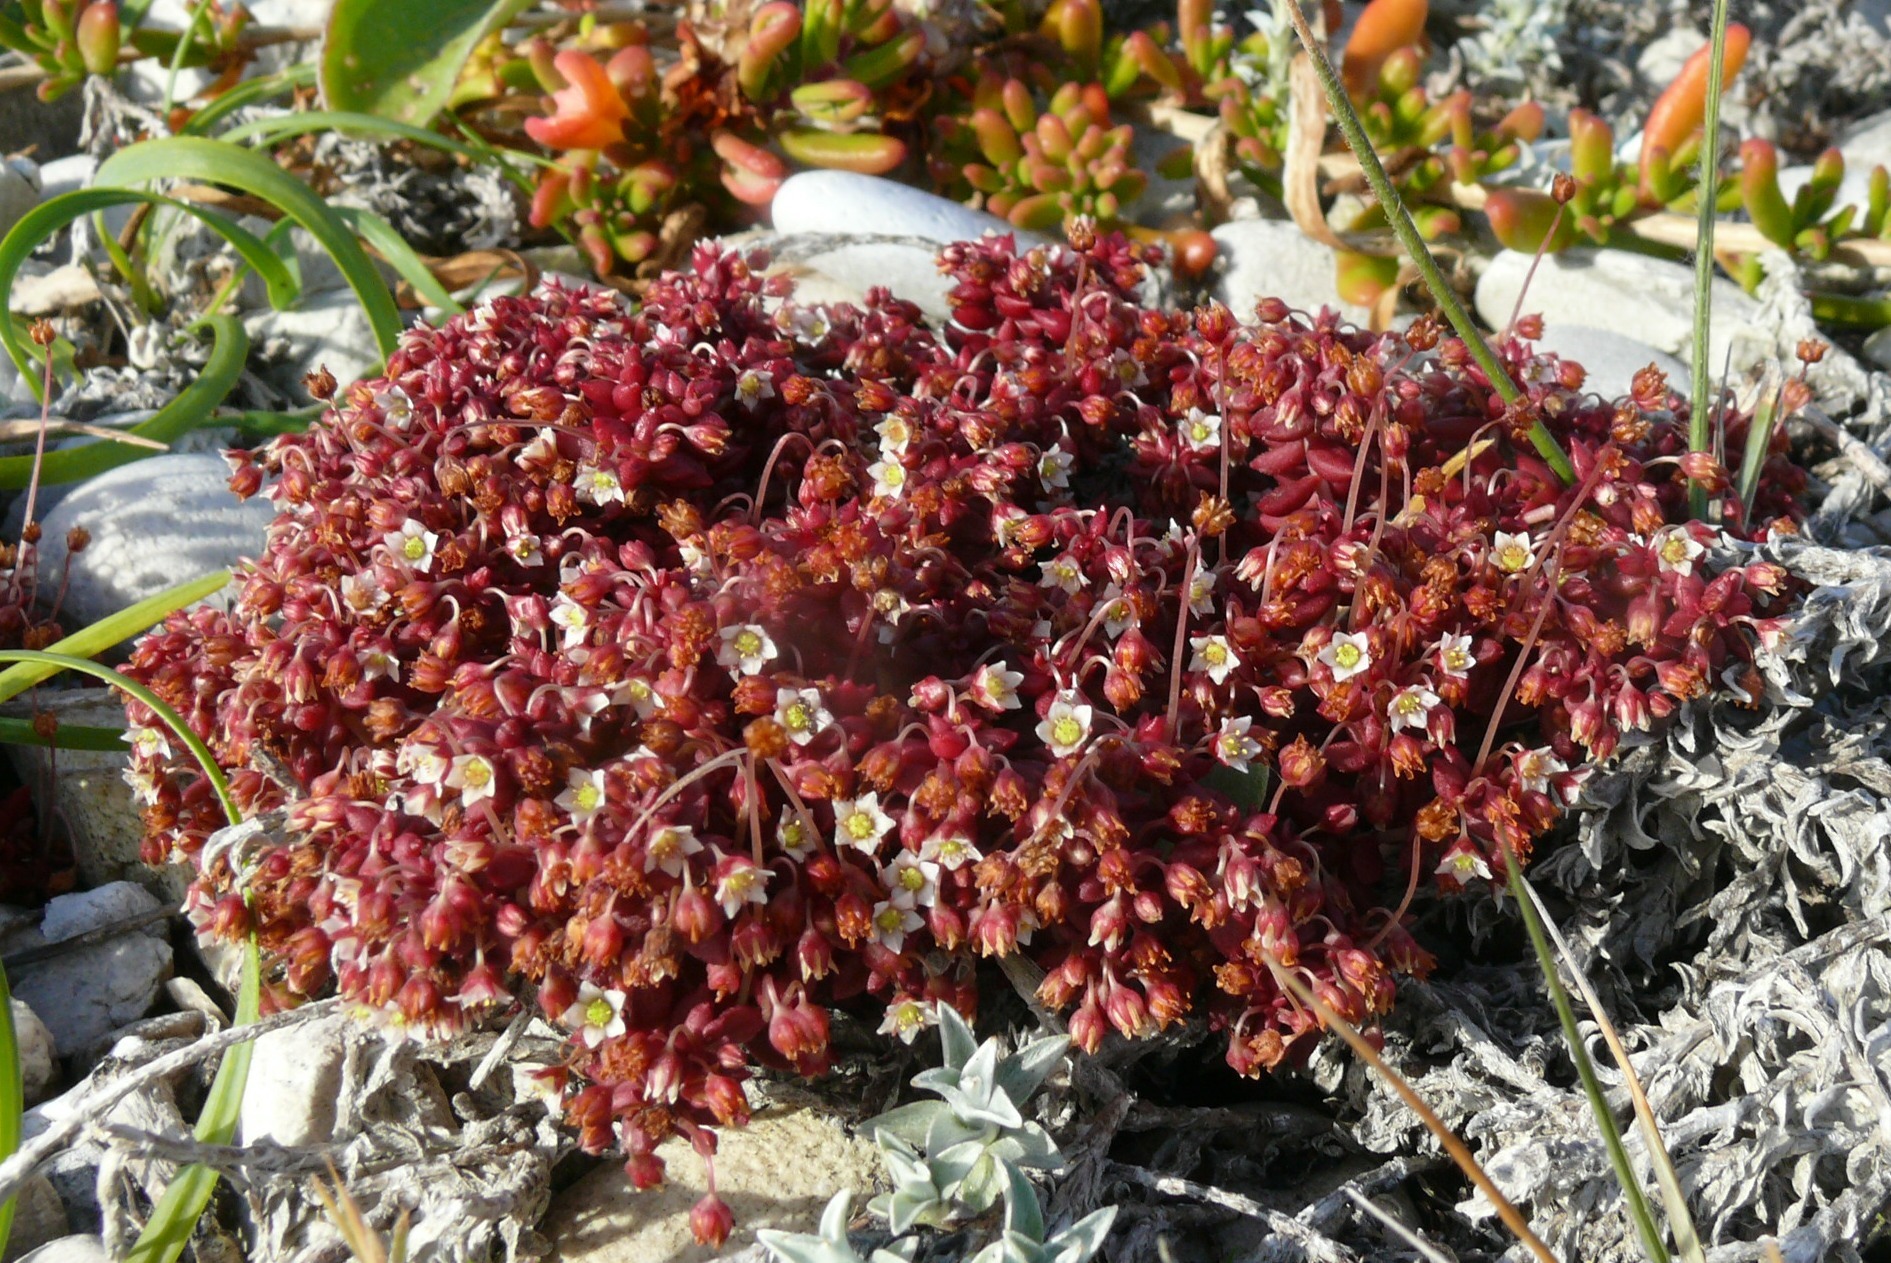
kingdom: Plantae
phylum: Tracheophyta
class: Magnoliopsida
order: Saxifragales
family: Crassulaceae
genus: Crassula
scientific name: Crassula expansa
